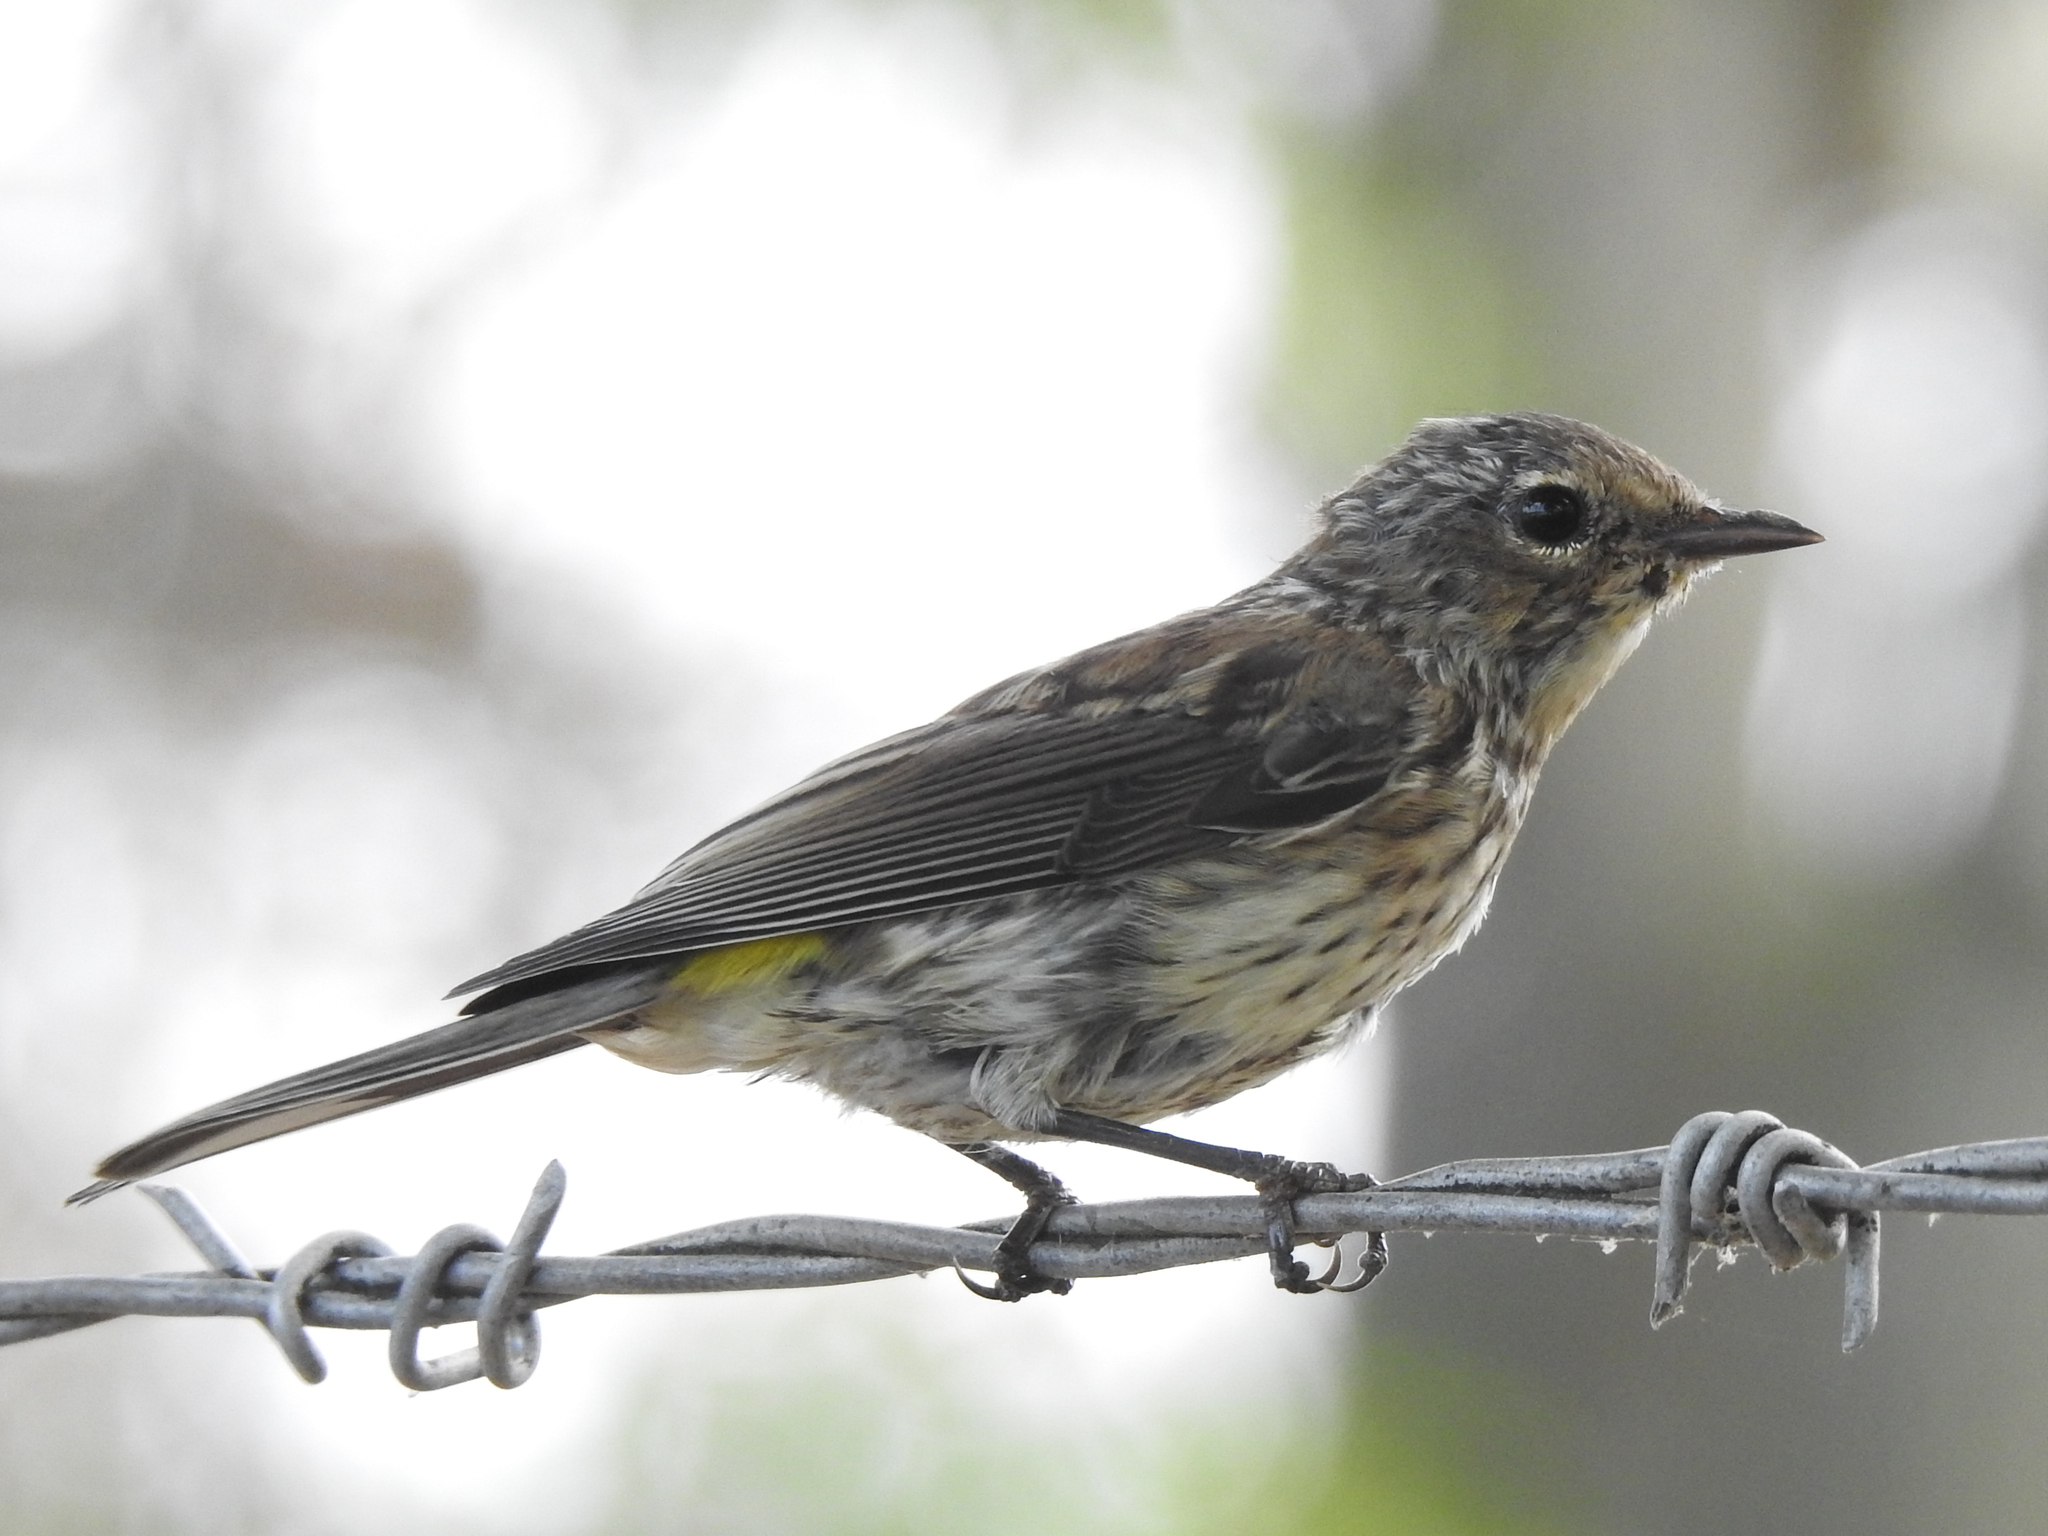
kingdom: Animalia
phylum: Chordata
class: Aves
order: Passeriformes
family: Parulidae
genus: Setophaga
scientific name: Setophaga coronata
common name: Myrtle warbler
